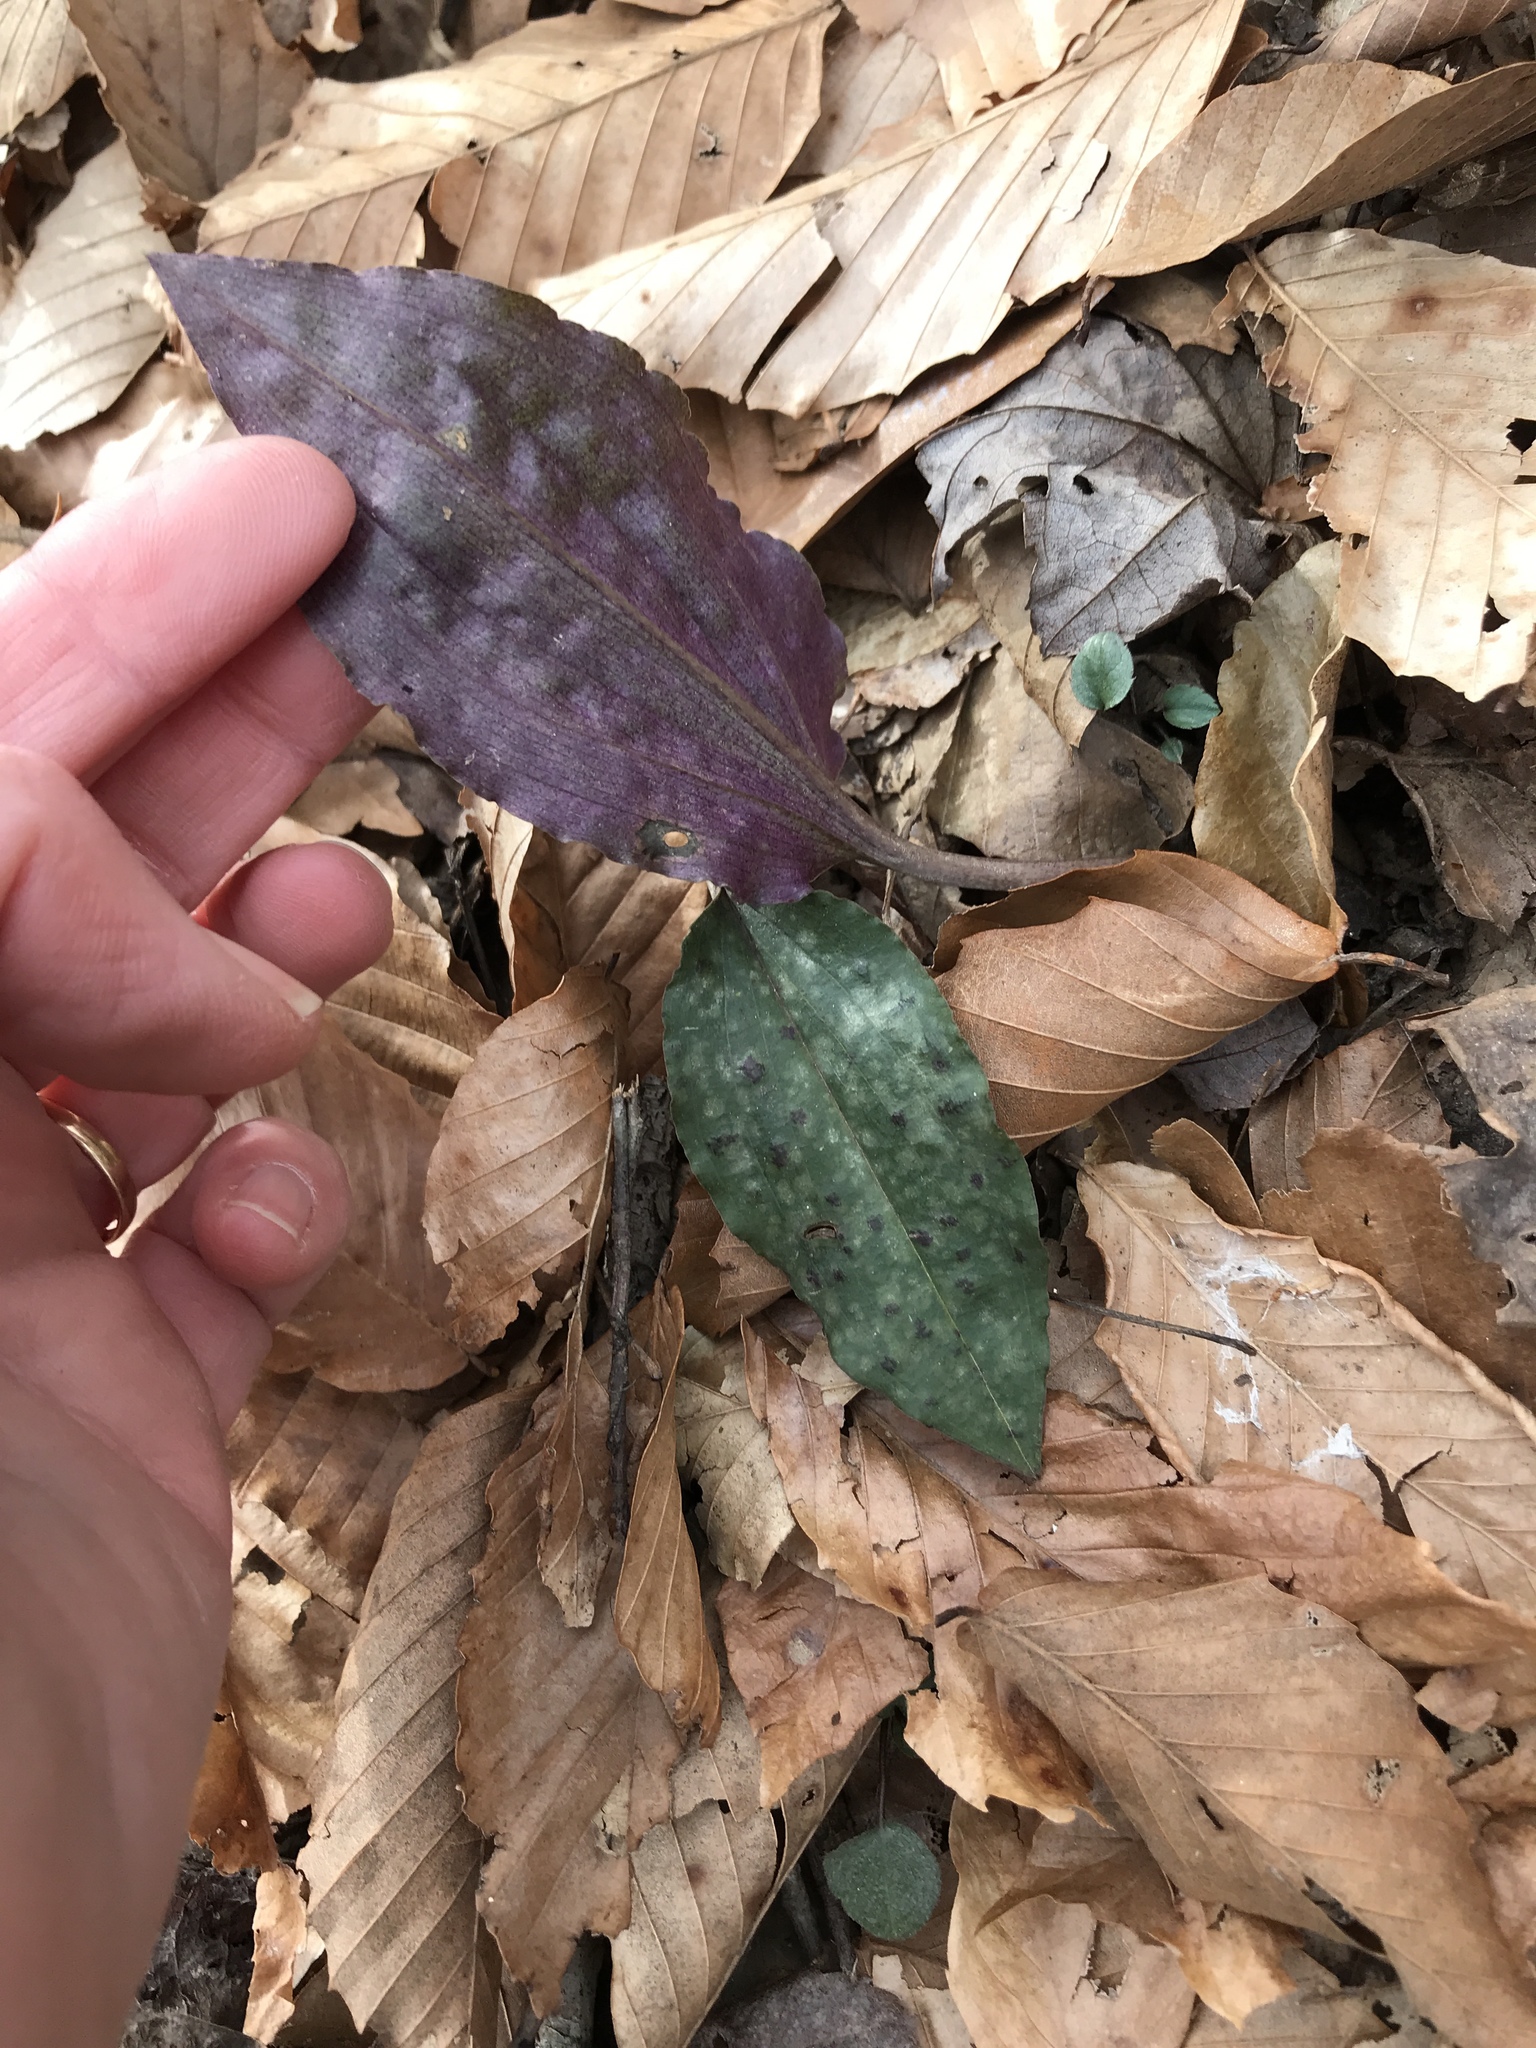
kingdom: Plantae
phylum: Tracheophyta
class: Liliopsida
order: Asparagales
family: Orchidaceae
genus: Tipularia
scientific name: Tipularia discolor
